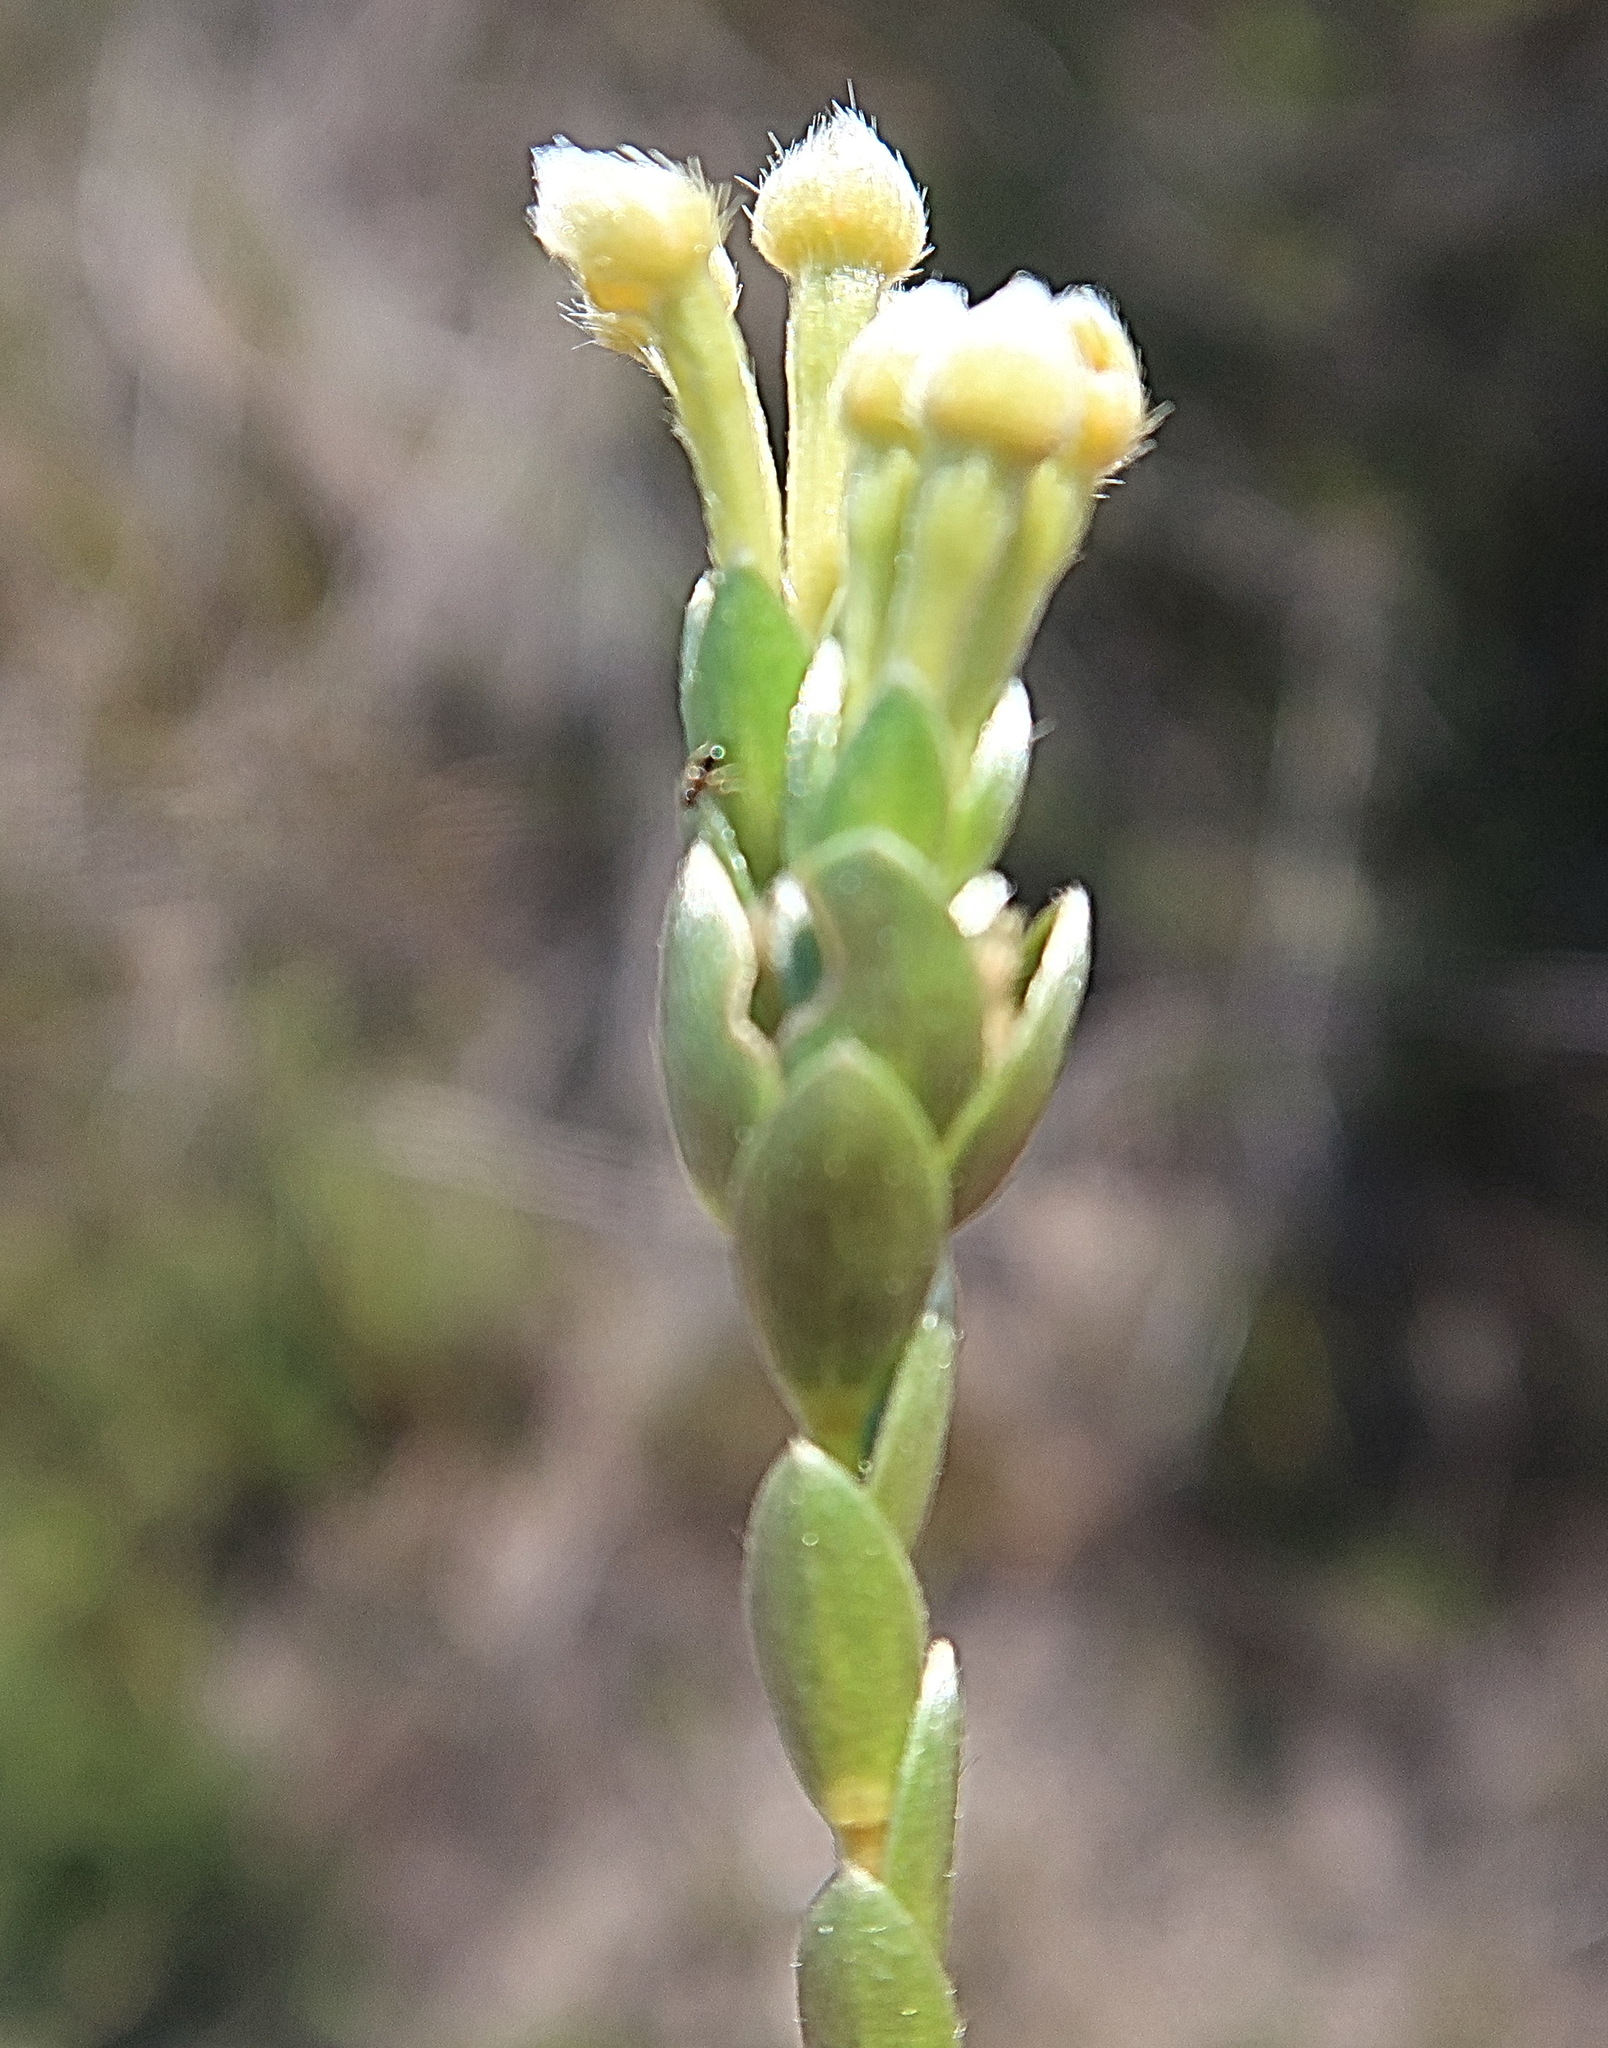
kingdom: Plantae
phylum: Tracheophyta
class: Magnoliopsida
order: Malvales
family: Thymelaeaceae
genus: Gnidia
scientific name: Gnidia chrysophylla
